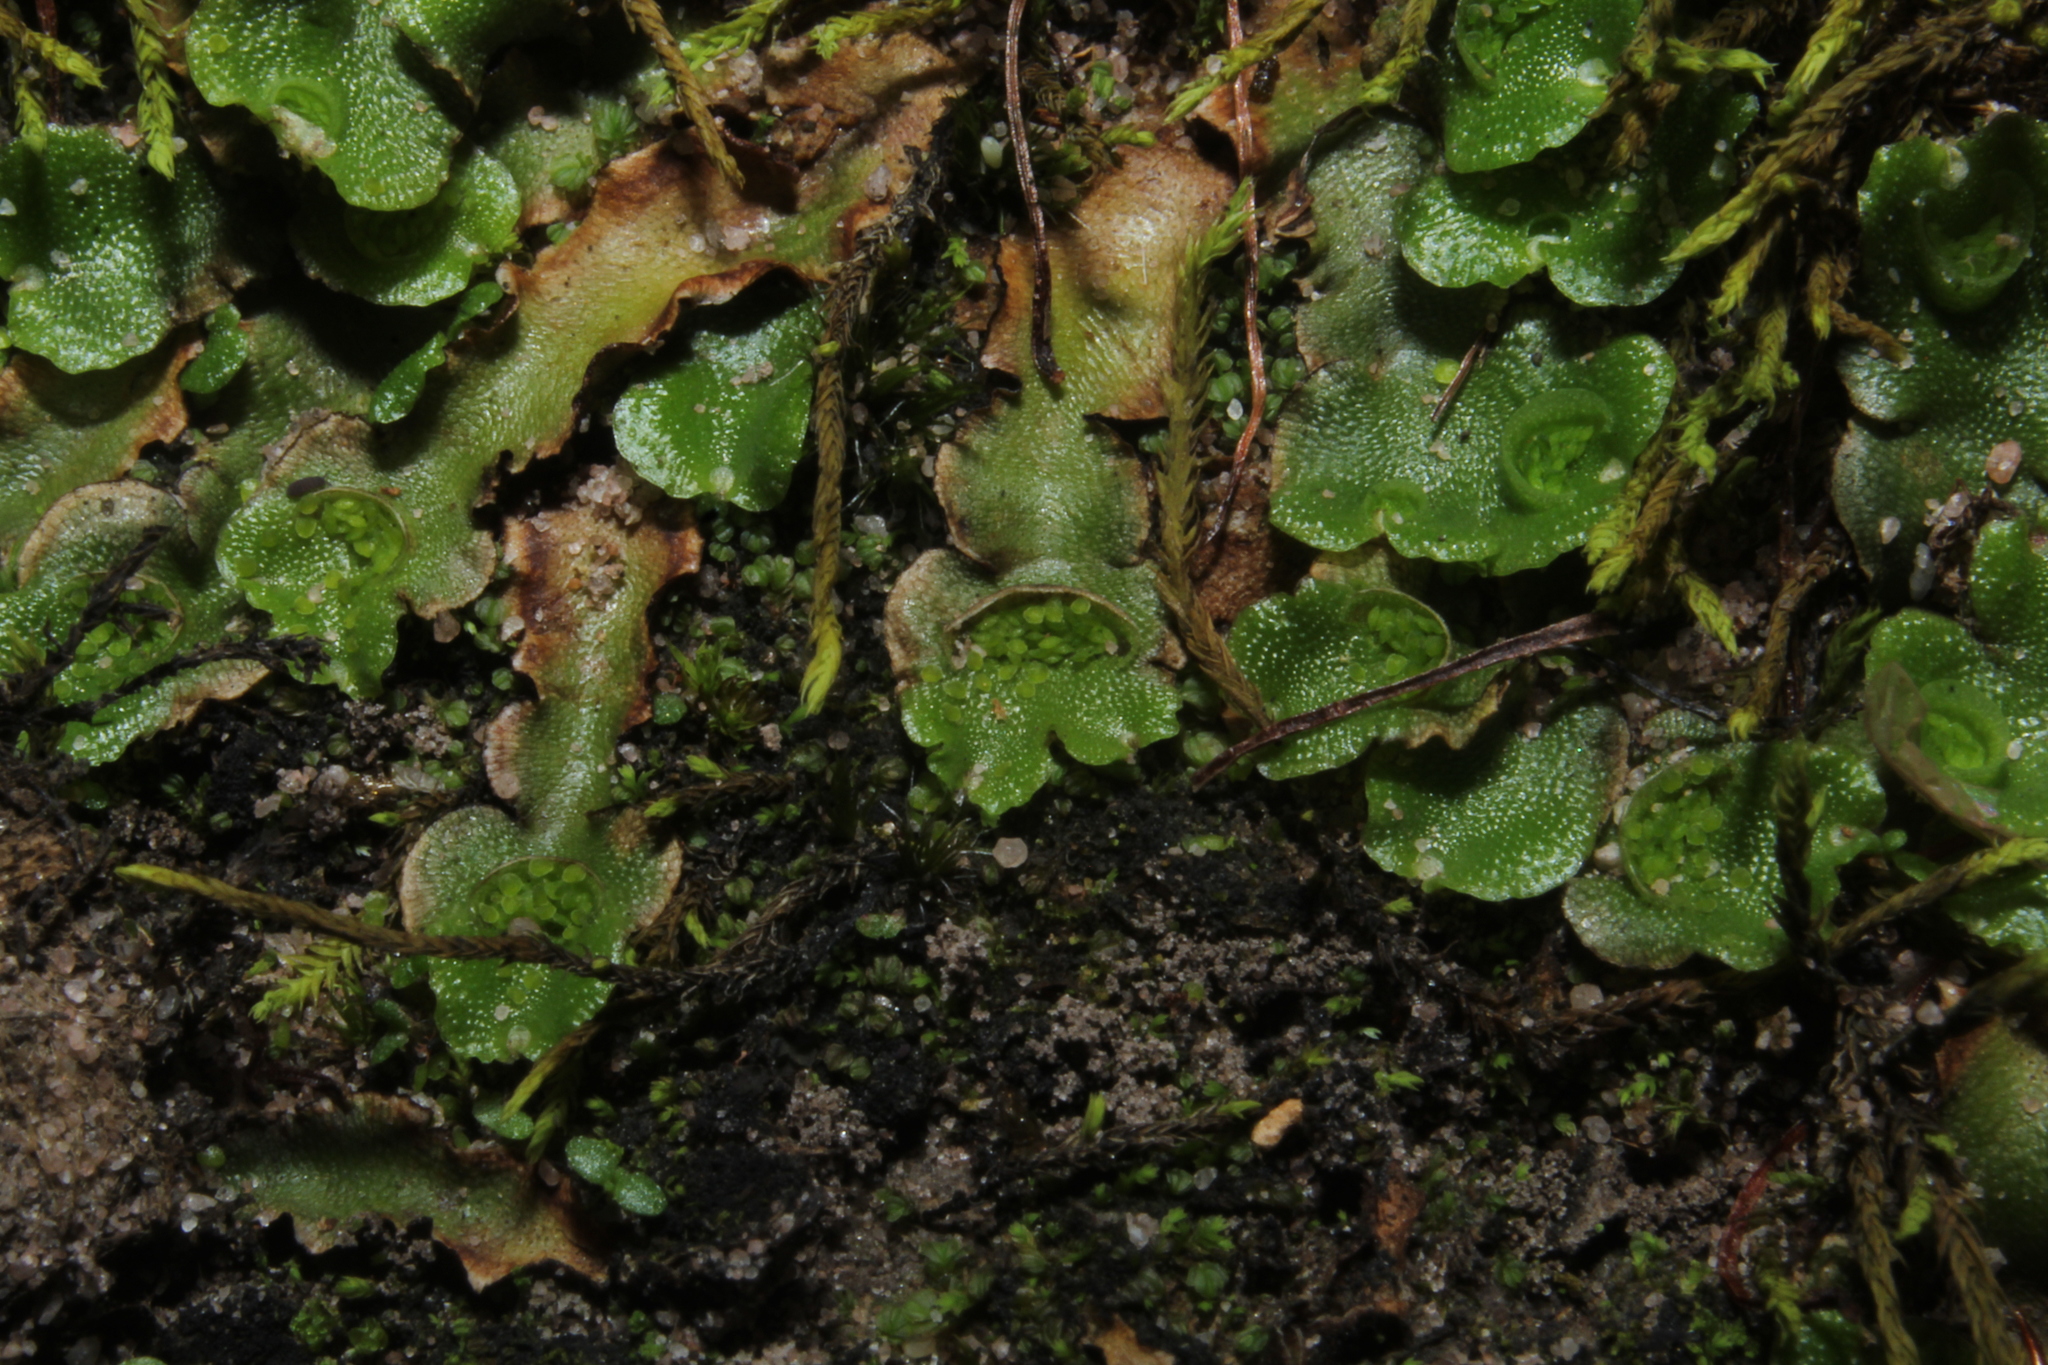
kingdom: Plantae
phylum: Marchantiophyta
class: Marchantiopsida
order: Lunulariales
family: Lunulariaceae
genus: Lunularia
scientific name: Lunularia cruciata
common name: Crescent-cup liverwort
